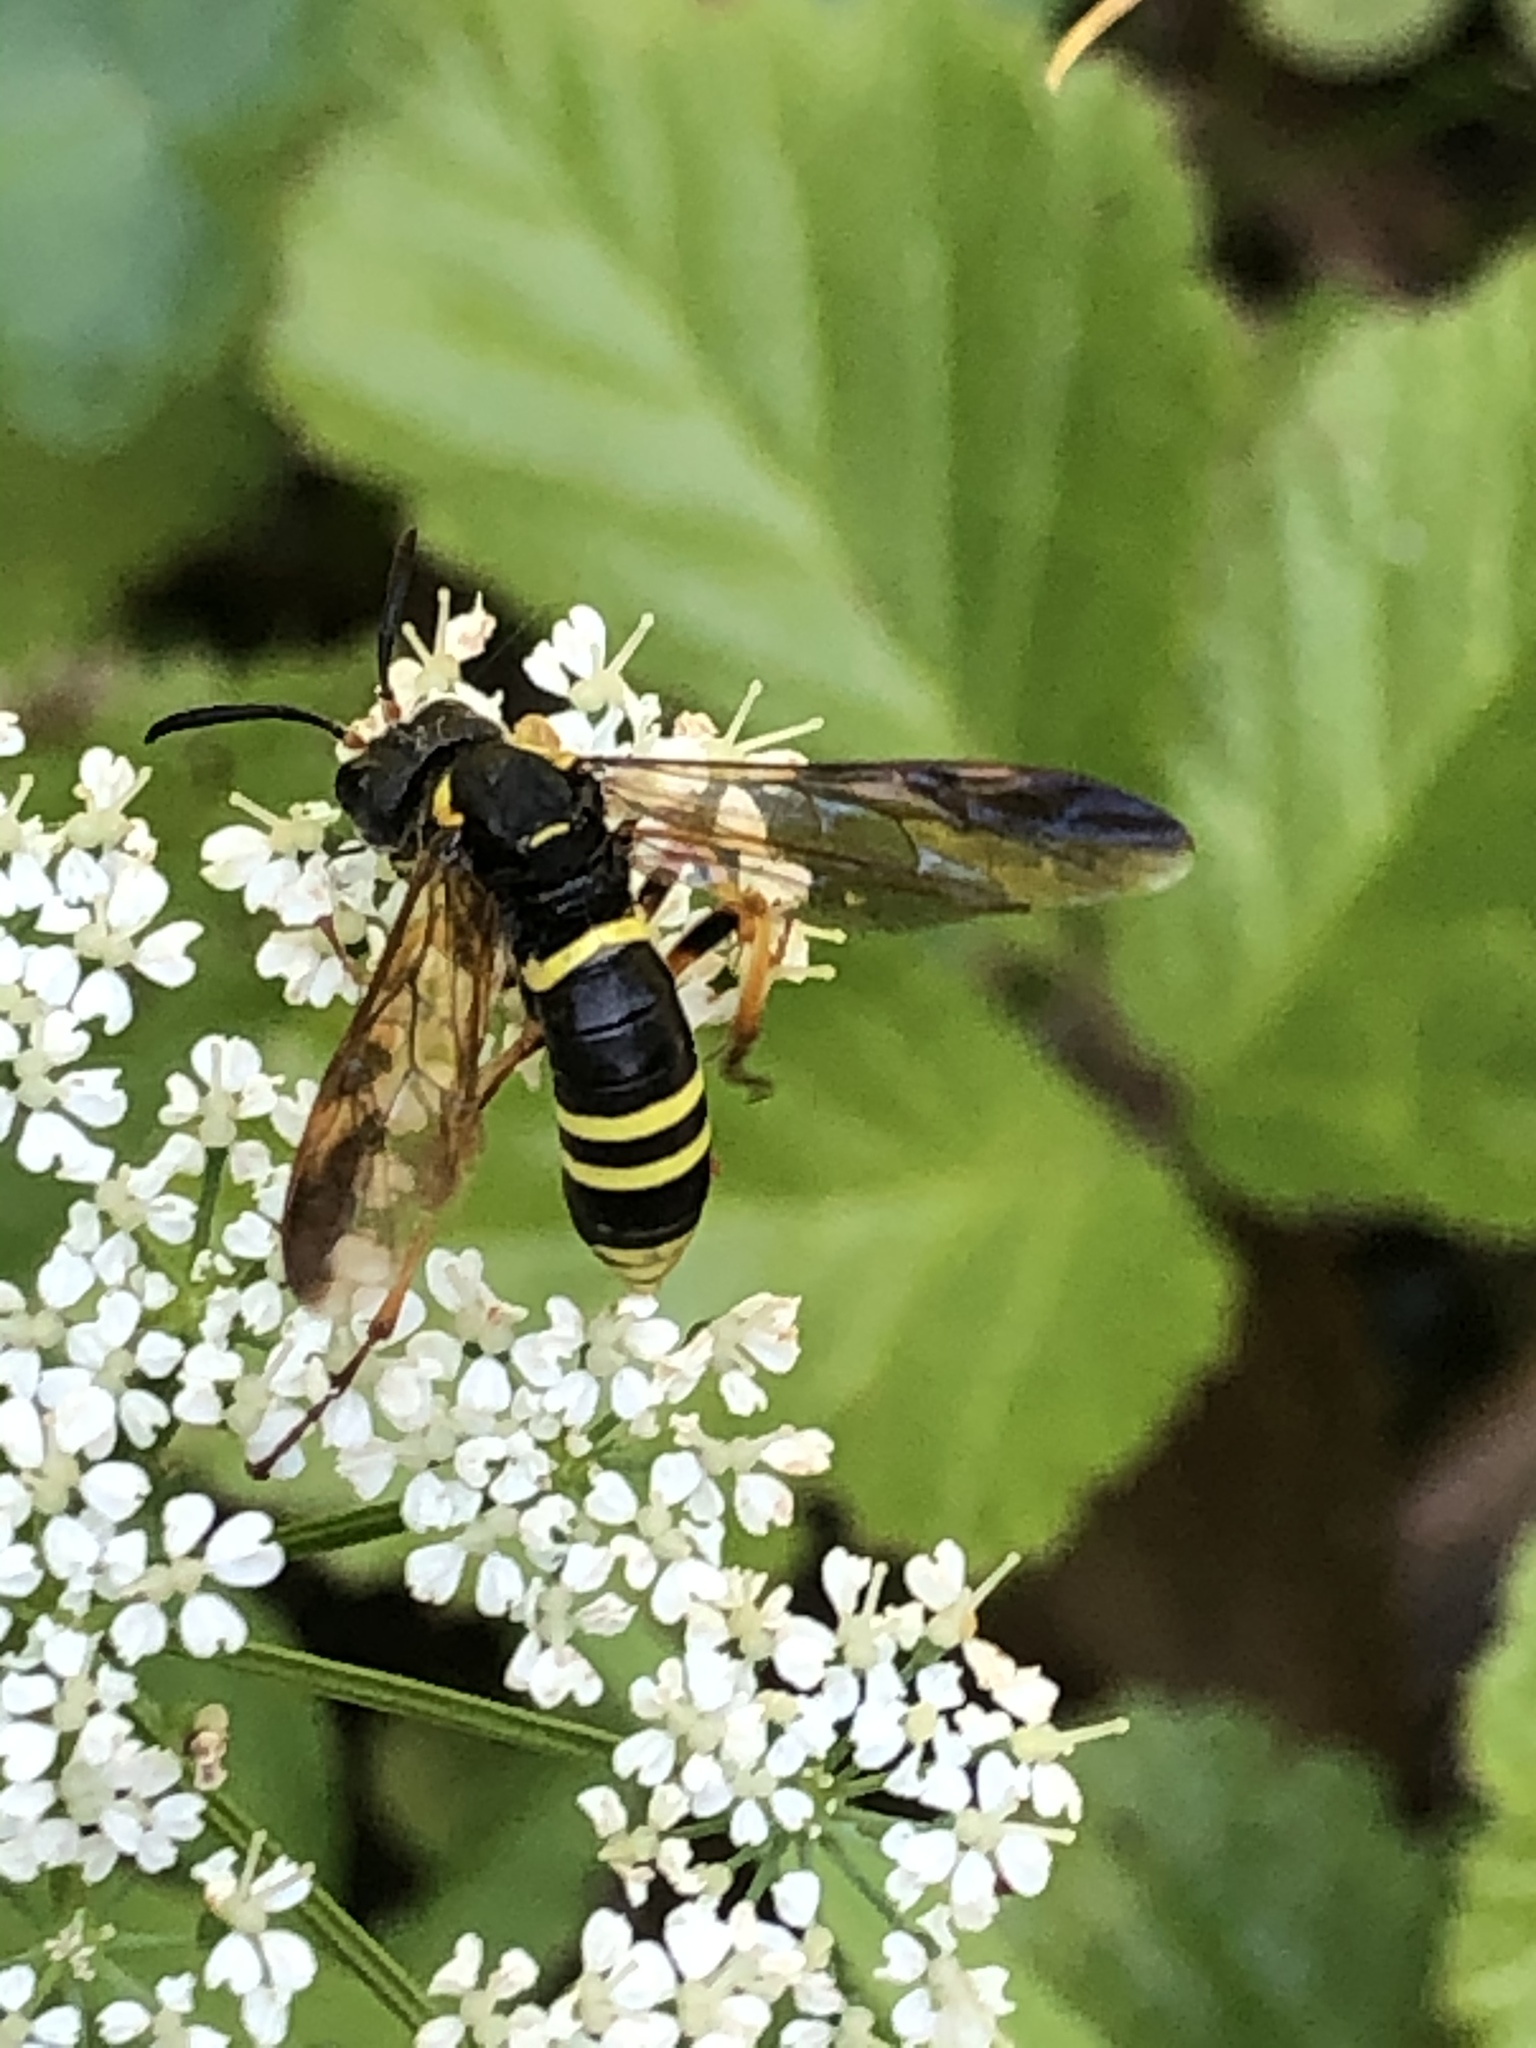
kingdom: Animalia
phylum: Arthropoda
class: Insecta
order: Hymenoptera
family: Tenthredinidae
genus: Tenthredo
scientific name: Tenthredo vespa
